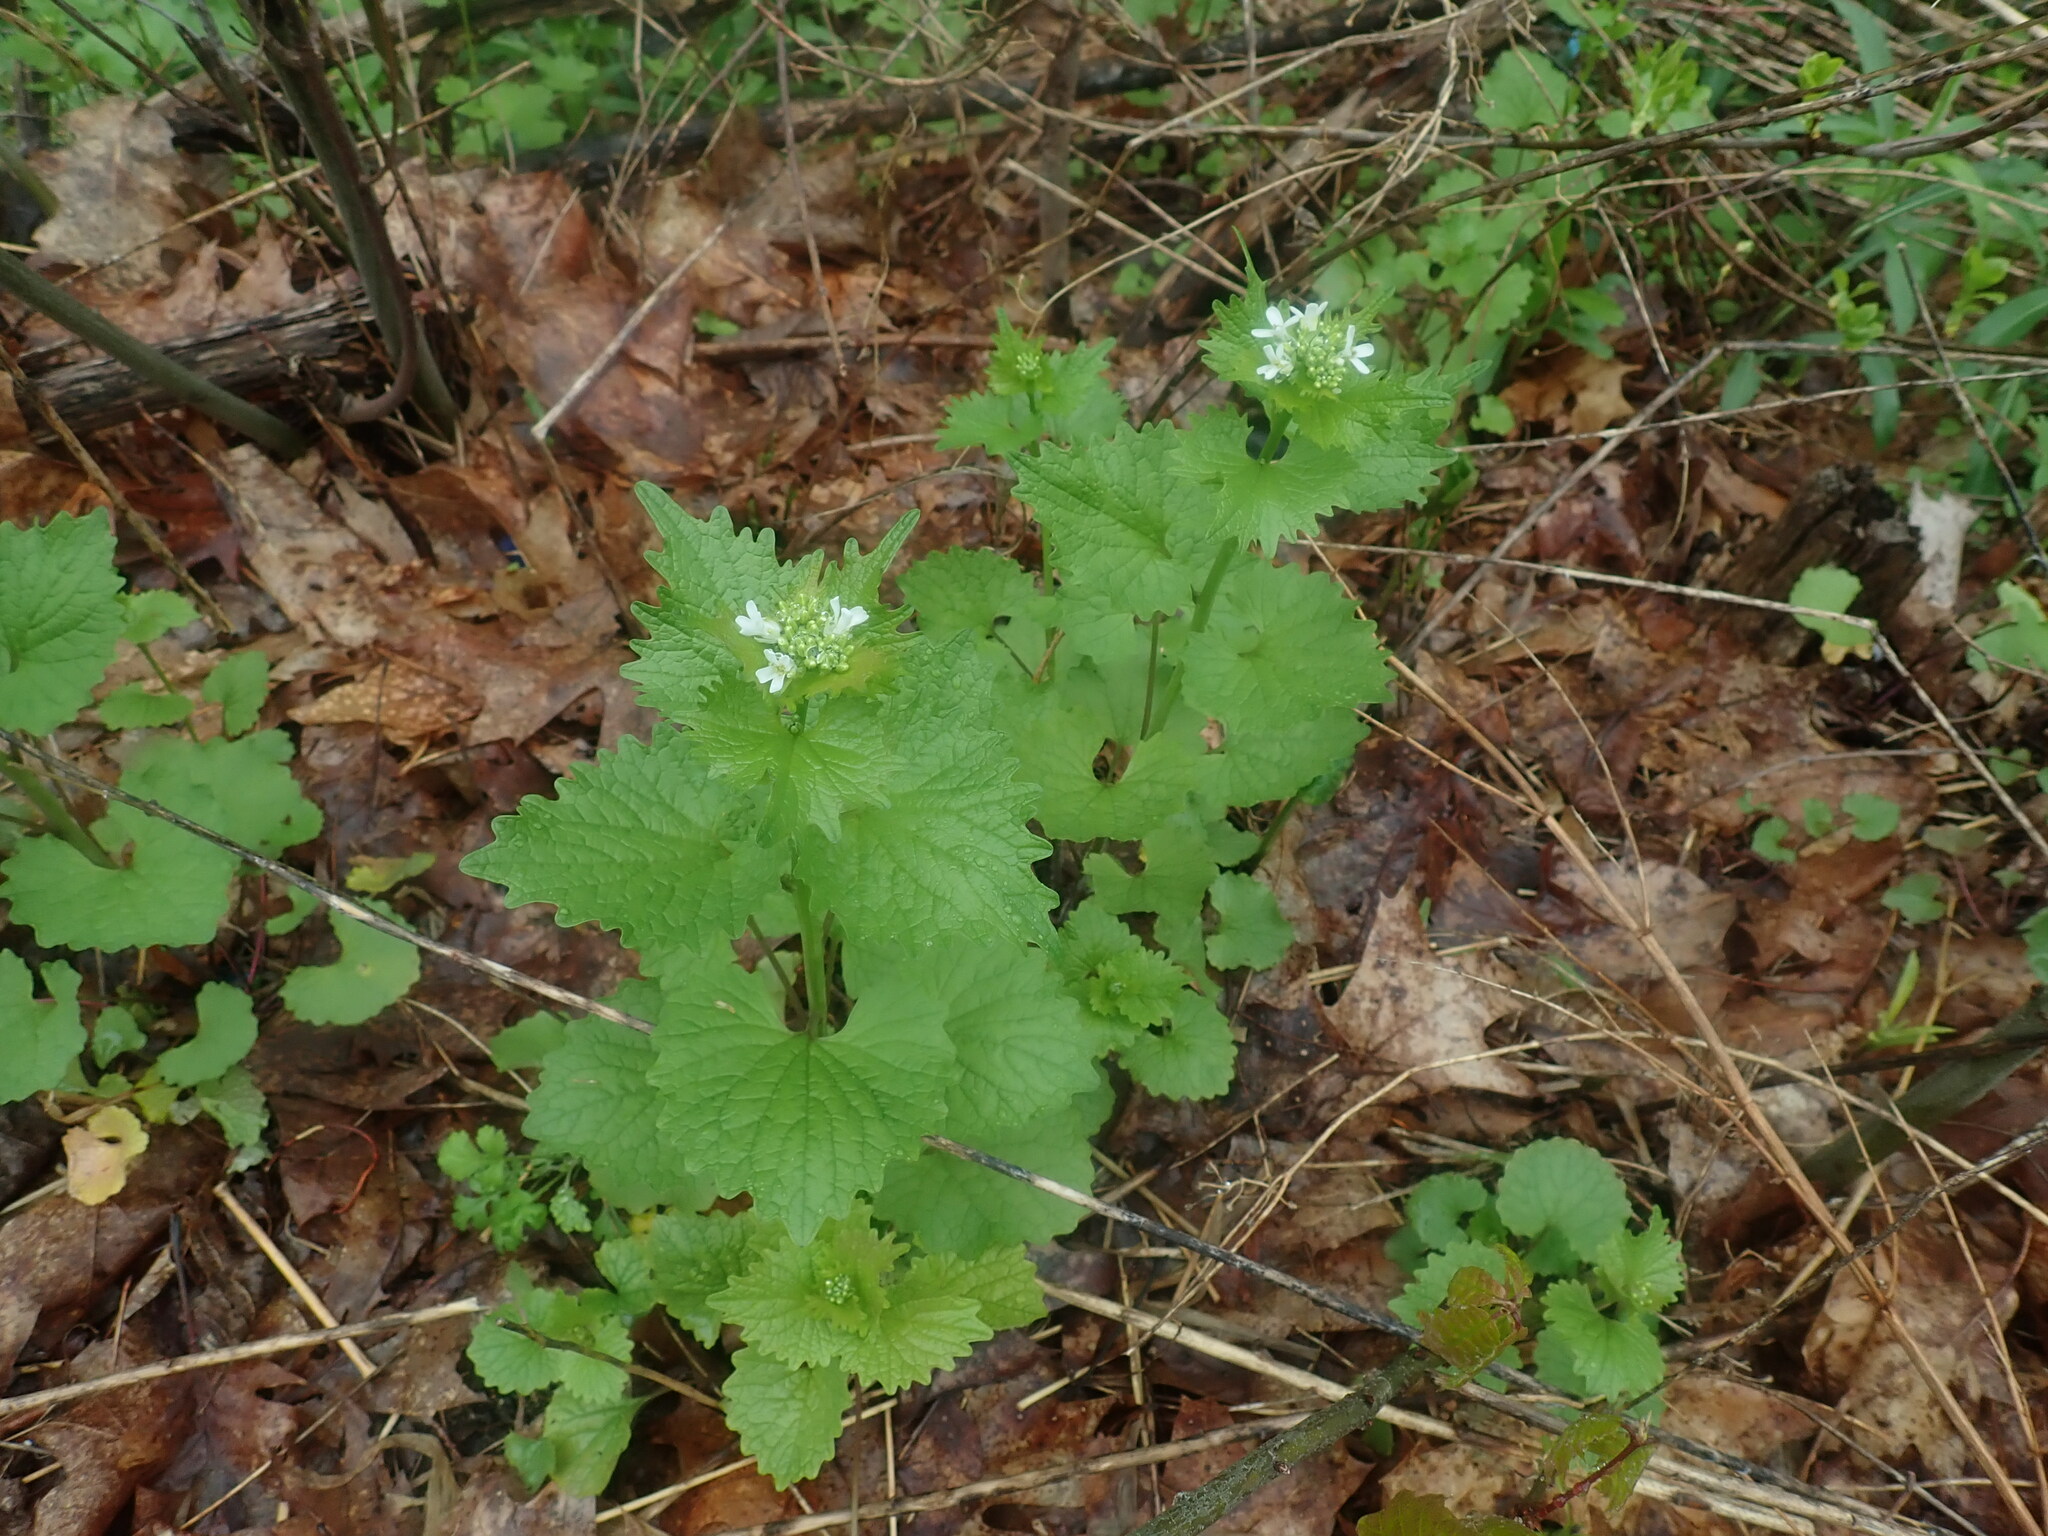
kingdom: Plantae
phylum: Tracheophyta
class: Magnoliopsida
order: Brassicales
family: Brassicaceae
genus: Alliaria
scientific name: Alliaria petiolata
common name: Garlic mustard
